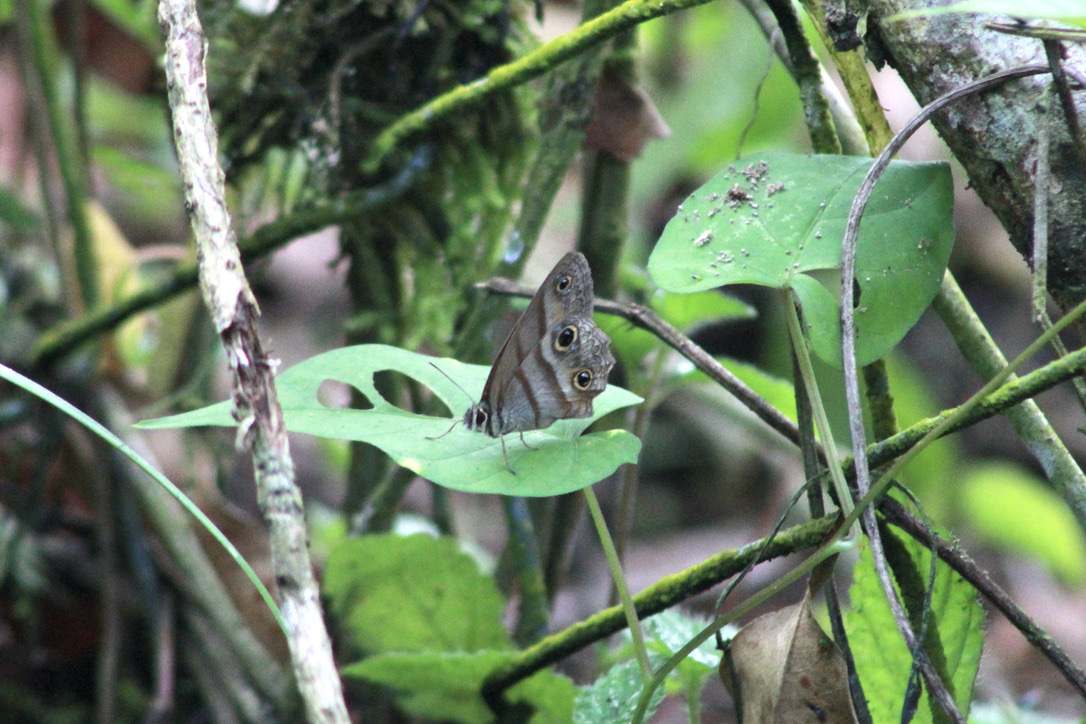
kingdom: Animalia
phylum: Arthropoda
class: Insecta
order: Lepidoptera
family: Nymphalidae
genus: Argyreuptychia
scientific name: Argyreuptychia penelope
